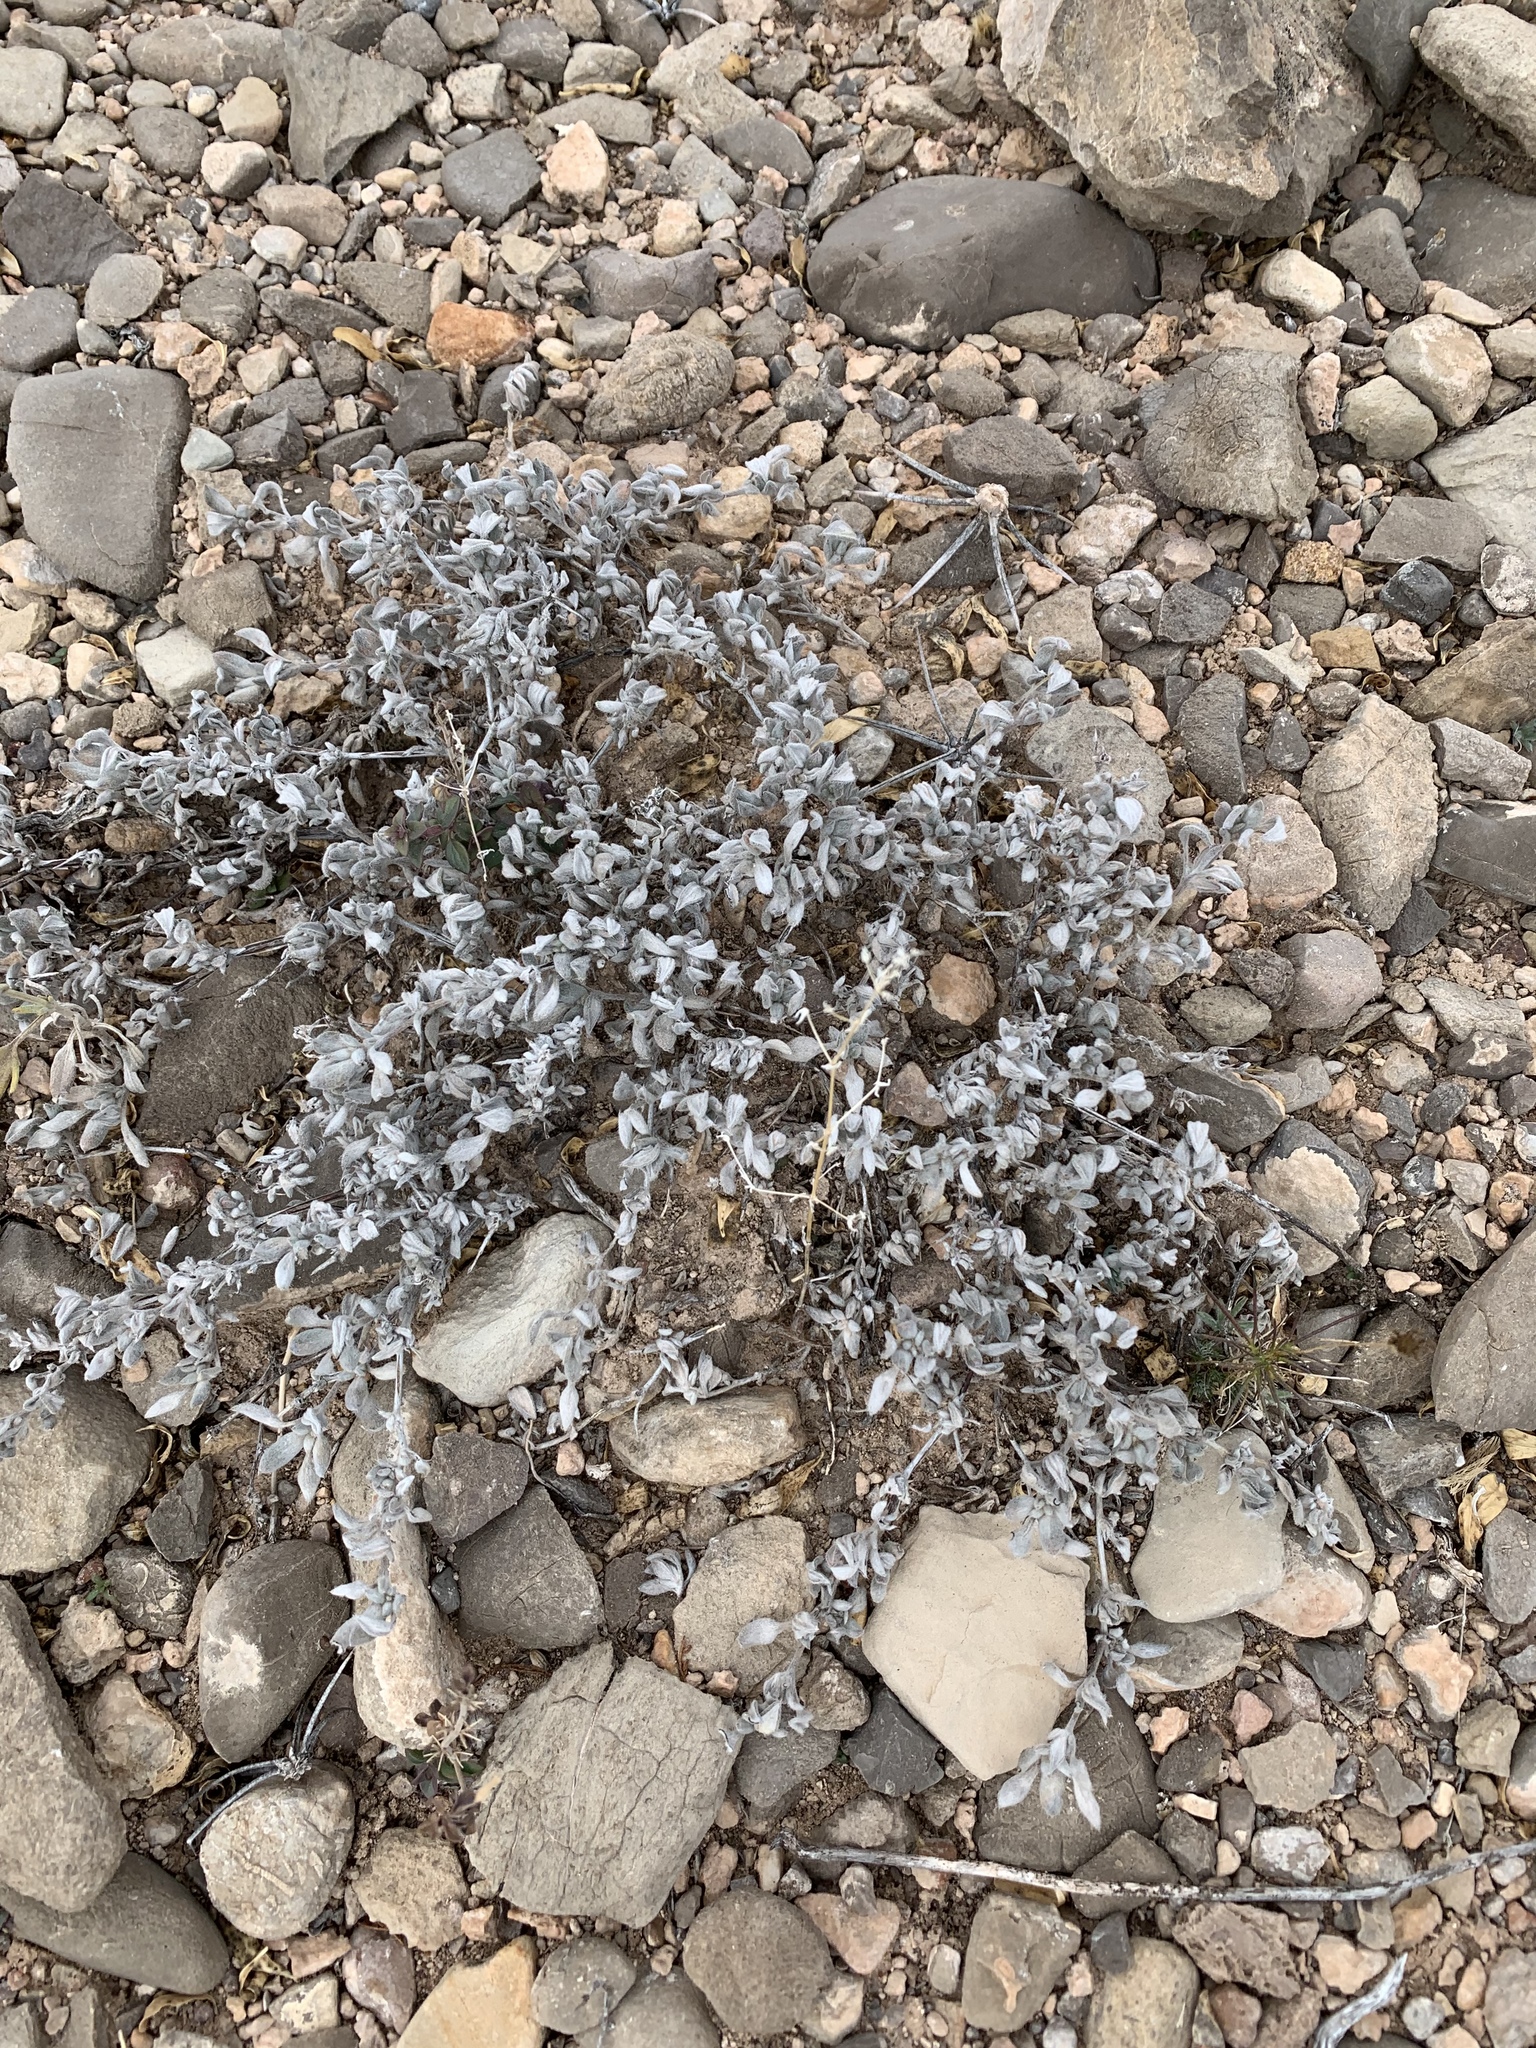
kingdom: Plantae
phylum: Tracheophyta
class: Magnoliopsida
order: Boraginales
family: Ehretiaceae
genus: Tiquilia
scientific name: Tiquilia canescens
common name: Hairy tiquilia
